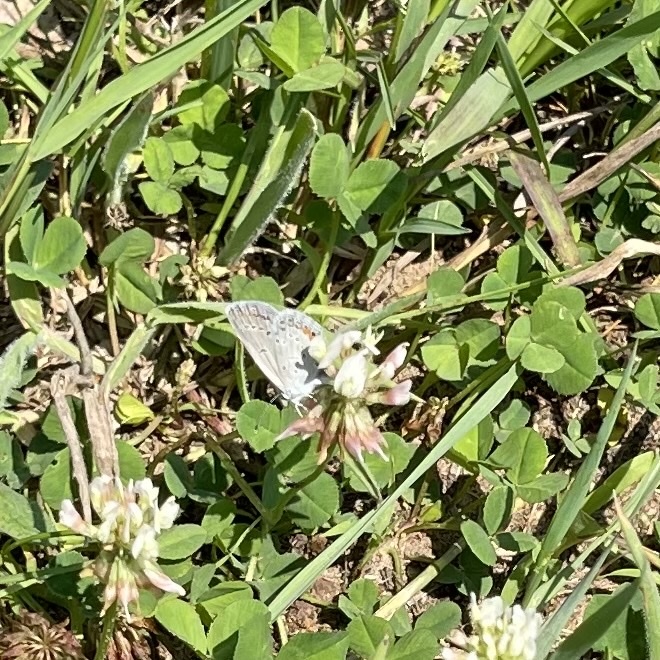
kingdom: Animalia
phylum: Arthropoda
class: Insecta
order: Lepidoptera
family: Lycaenidae
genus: Elkalyce
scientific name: Elkalyce comyntas
